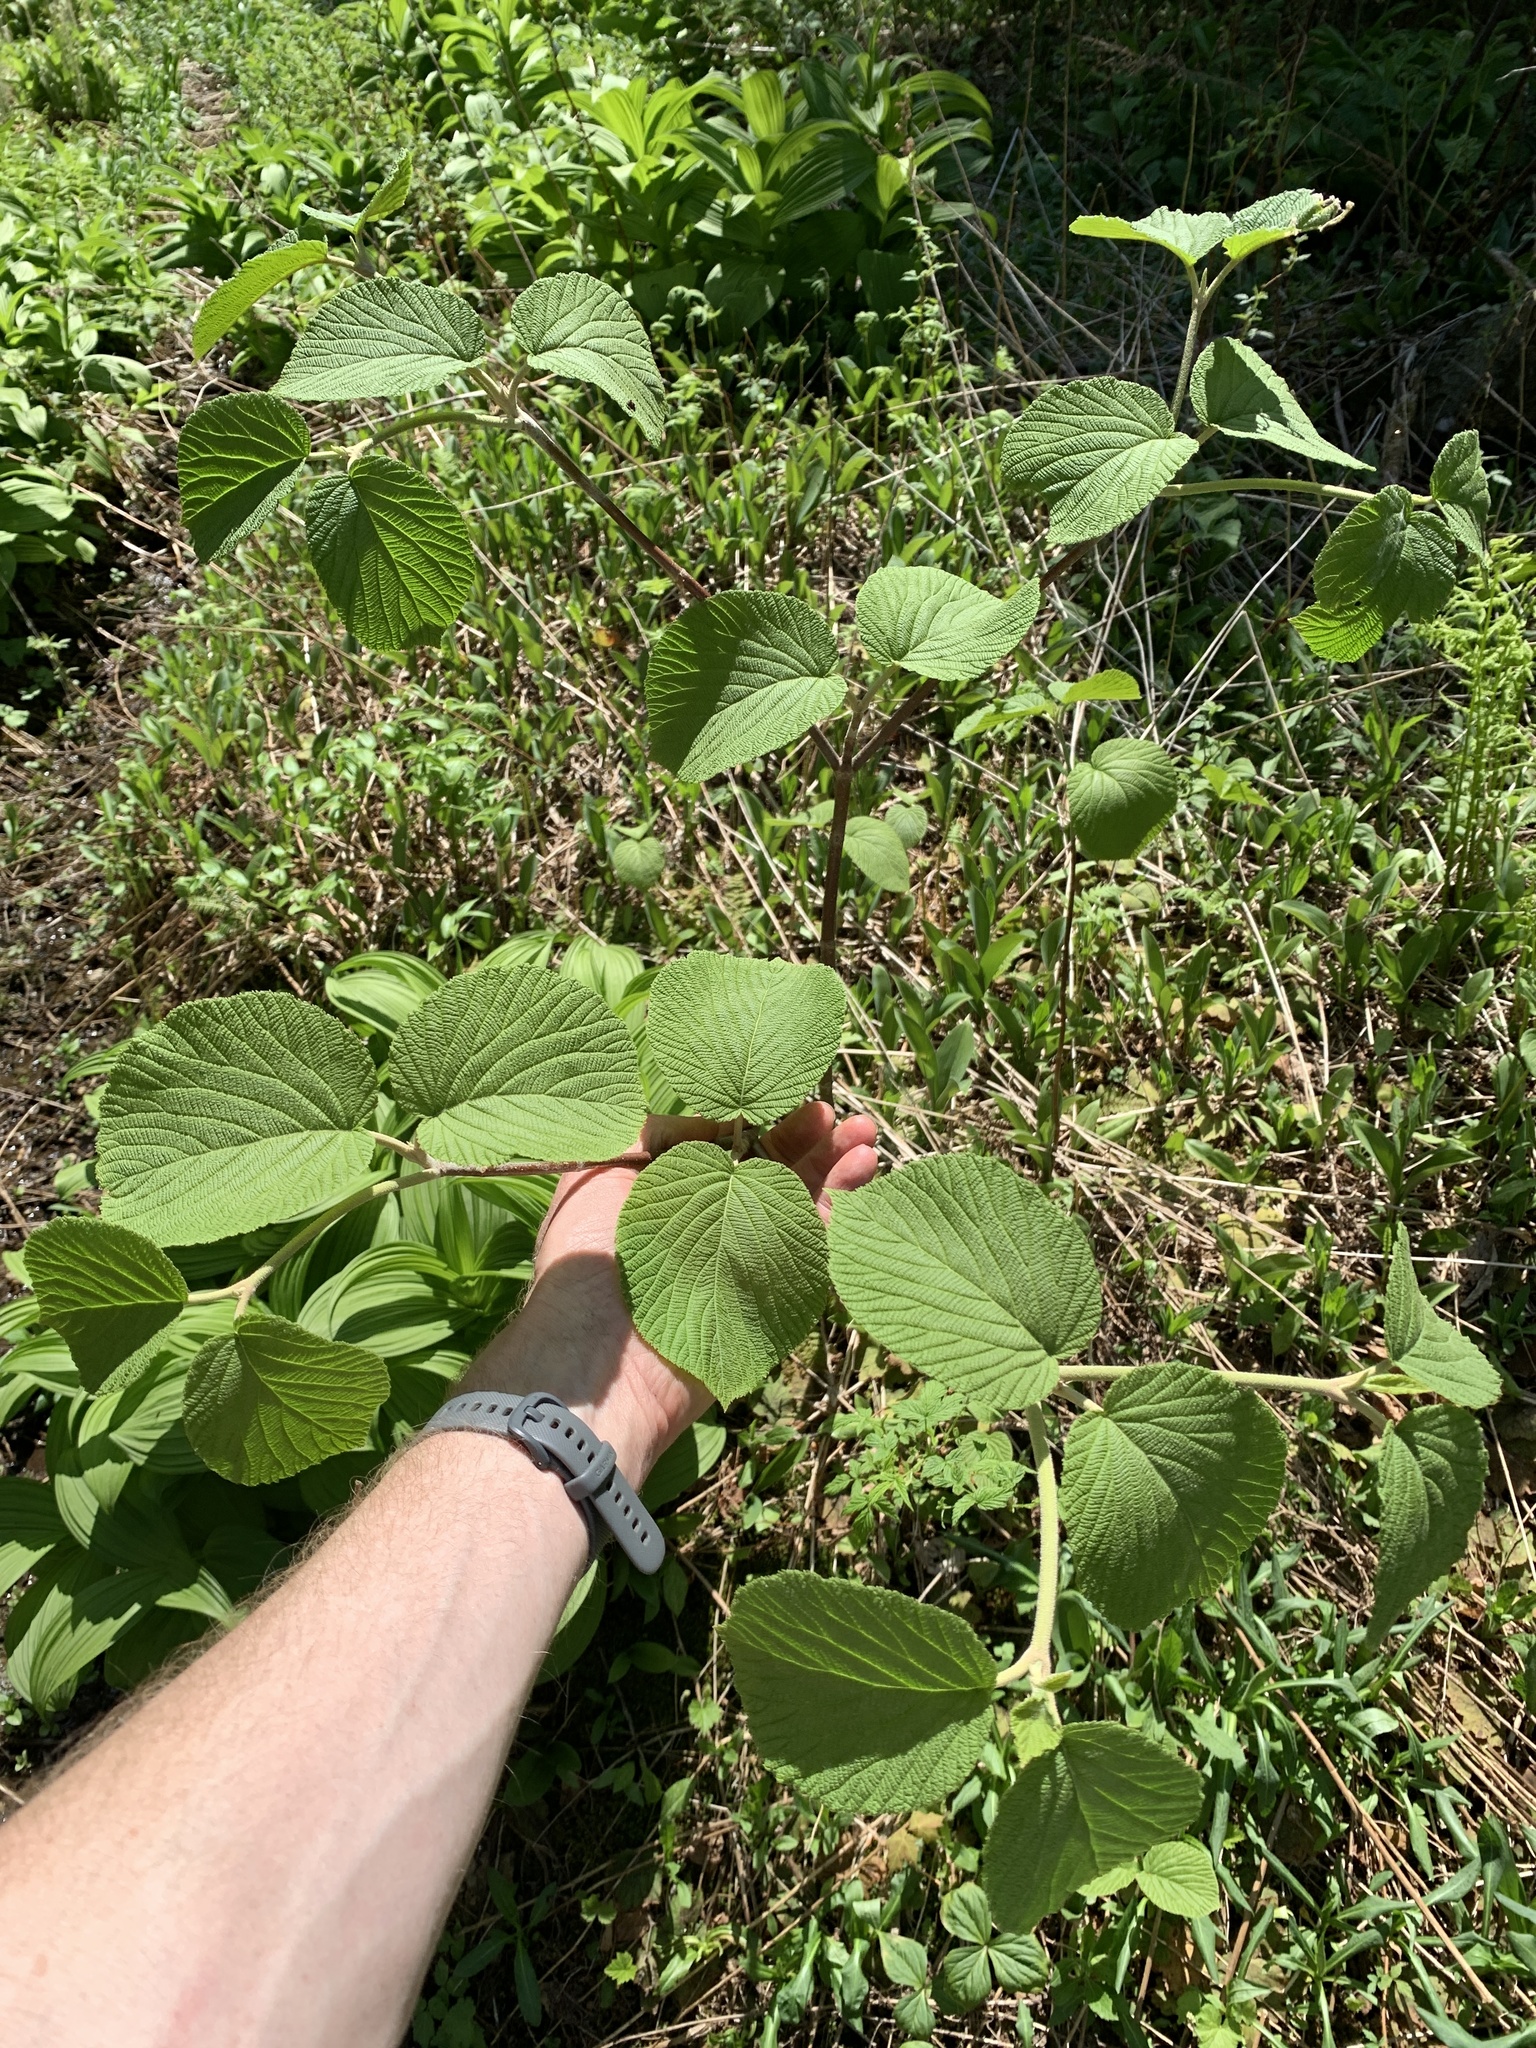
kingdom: Plantae
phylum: Tracheophyta
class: Magnoliopsida
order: Dipsacales
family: Viburnaceae
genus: Viburnum
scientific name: Viburnum lantanoides
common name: Hobblebush
